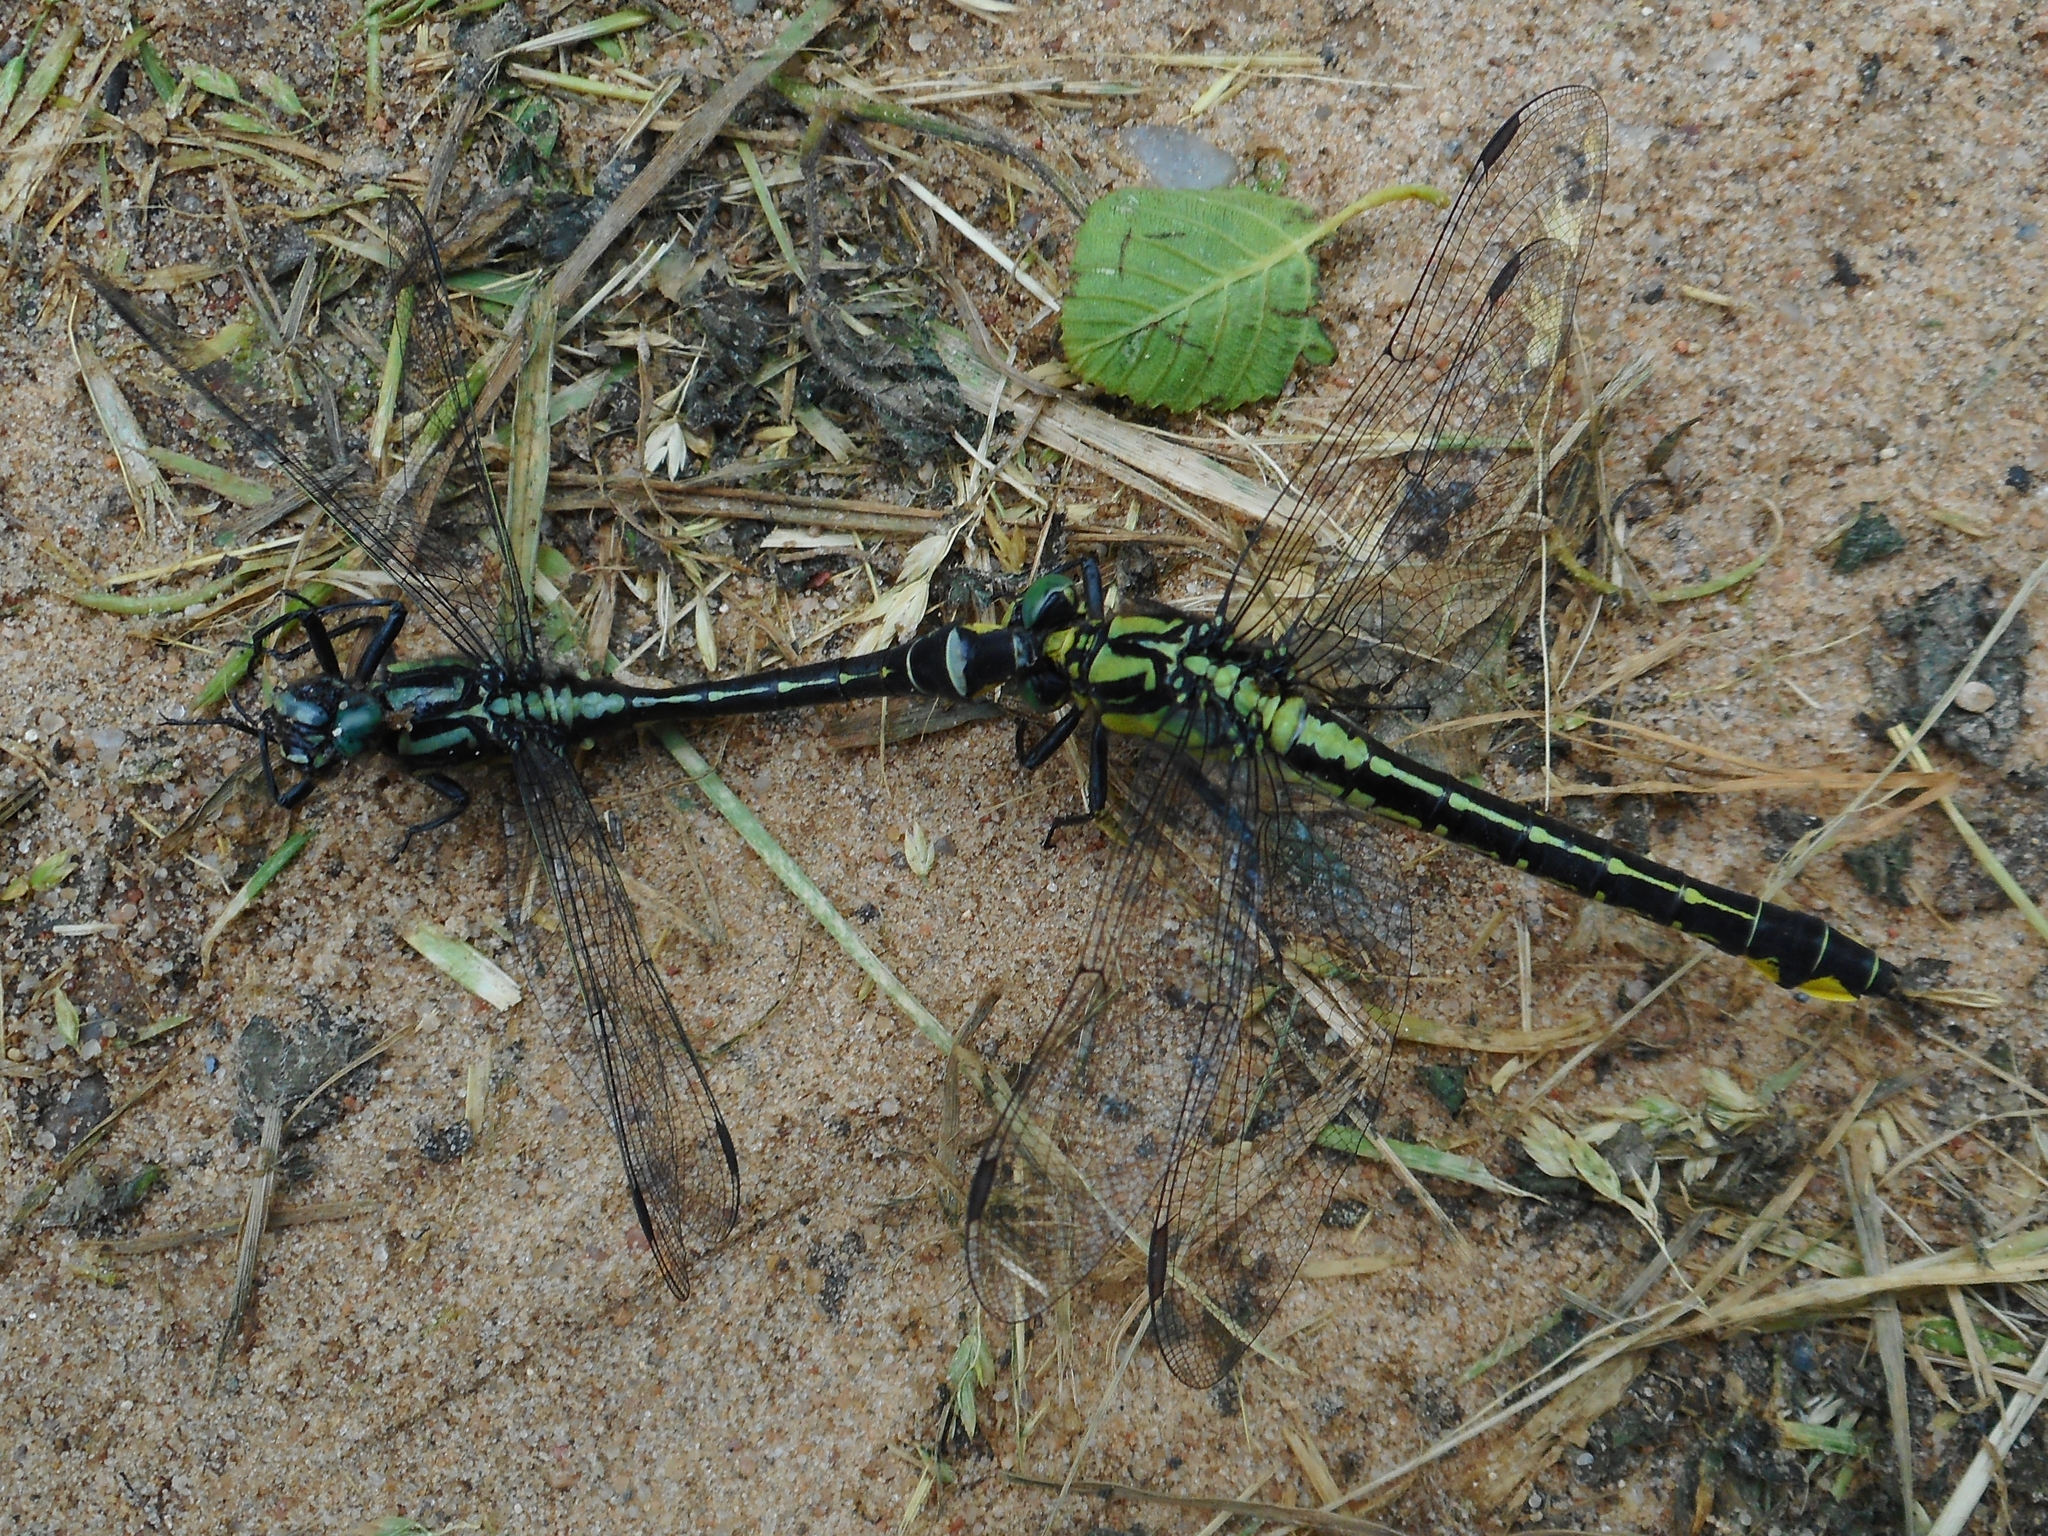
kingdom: Animalia
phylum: Arthropoda
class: Insecta
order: Odonata
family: Gomphidae
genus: Gomphus
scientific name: Gomphus vulgatissimus
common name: Club-tailed dragonfly
